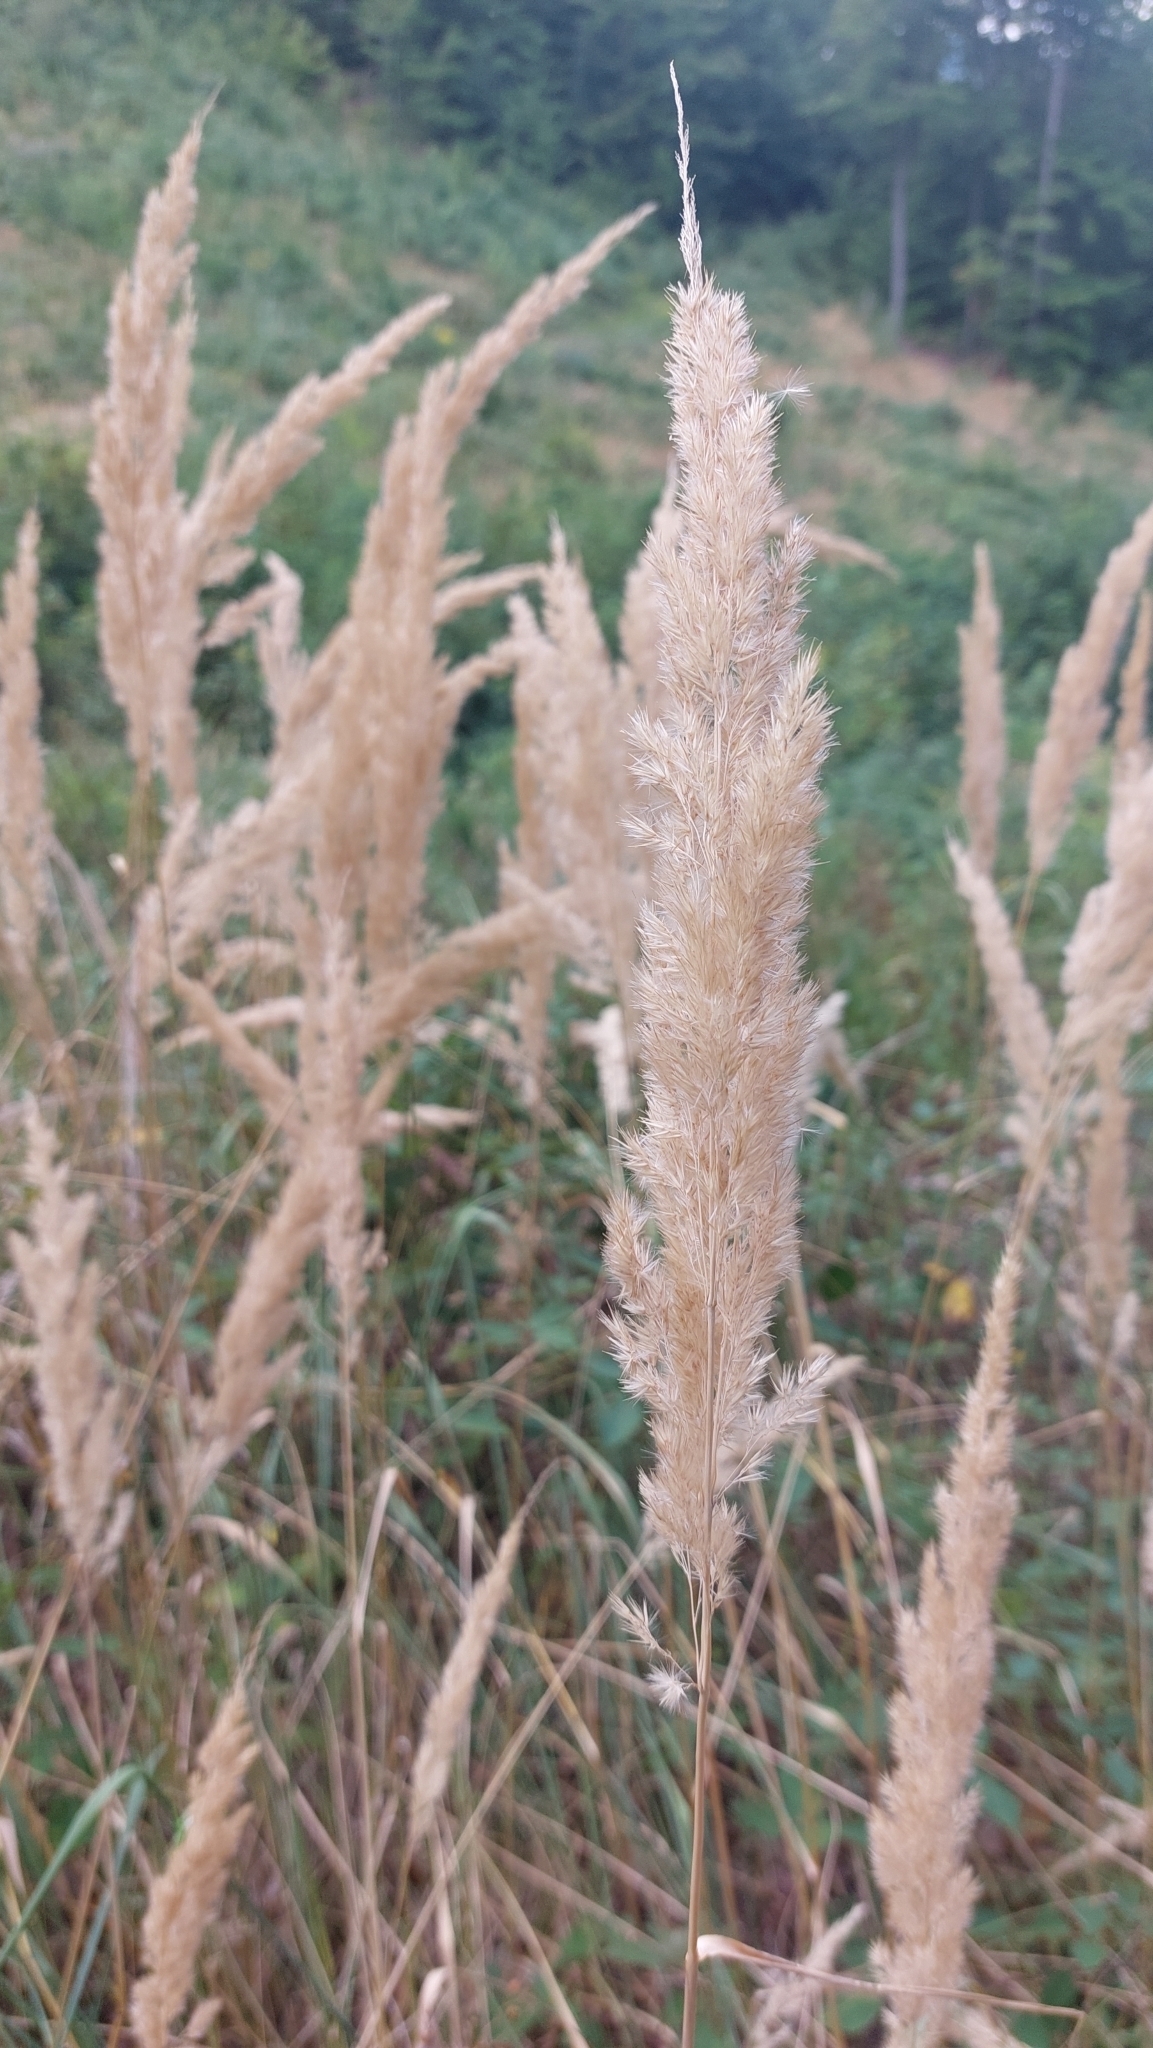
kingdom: Plantae
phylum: Tracheophyta
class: Liliopsida
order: Poales
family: Poaceae
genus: Calamagrostis
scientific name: Calamagrostis epigejos
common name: Wood small-reed
